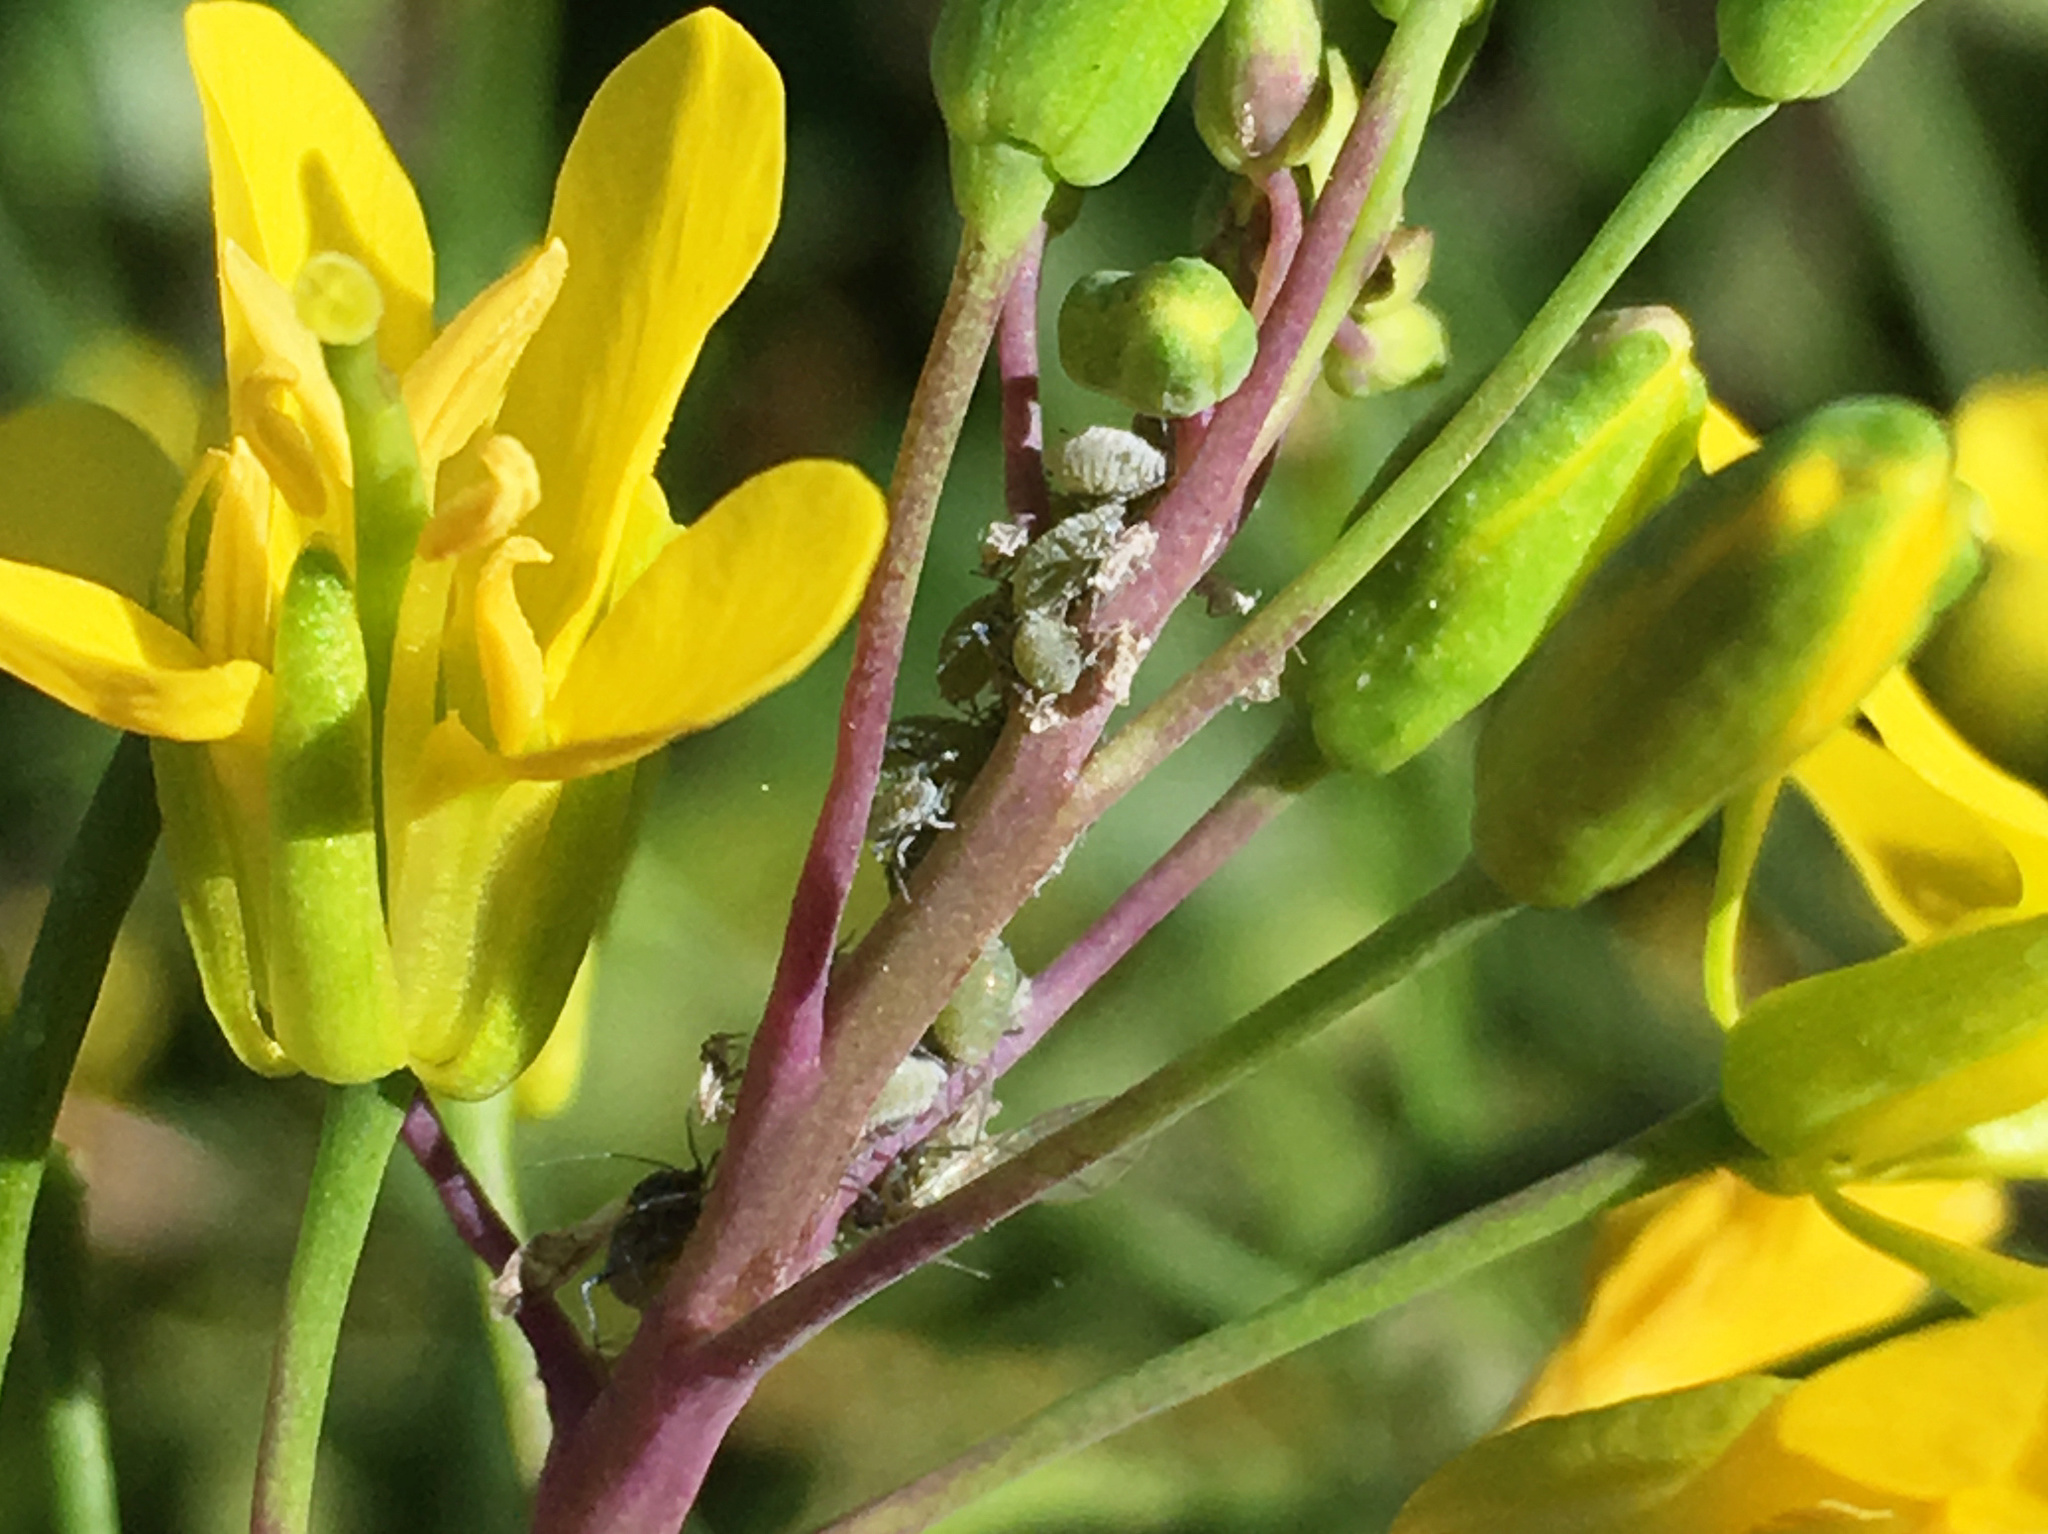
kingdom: Animalia
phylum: Arthropoda
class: Insecta
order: Hemiptera
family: Aphididae
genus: Brevicoryne
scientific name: Brevicoryne brassicae
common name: Cabbage aphid
